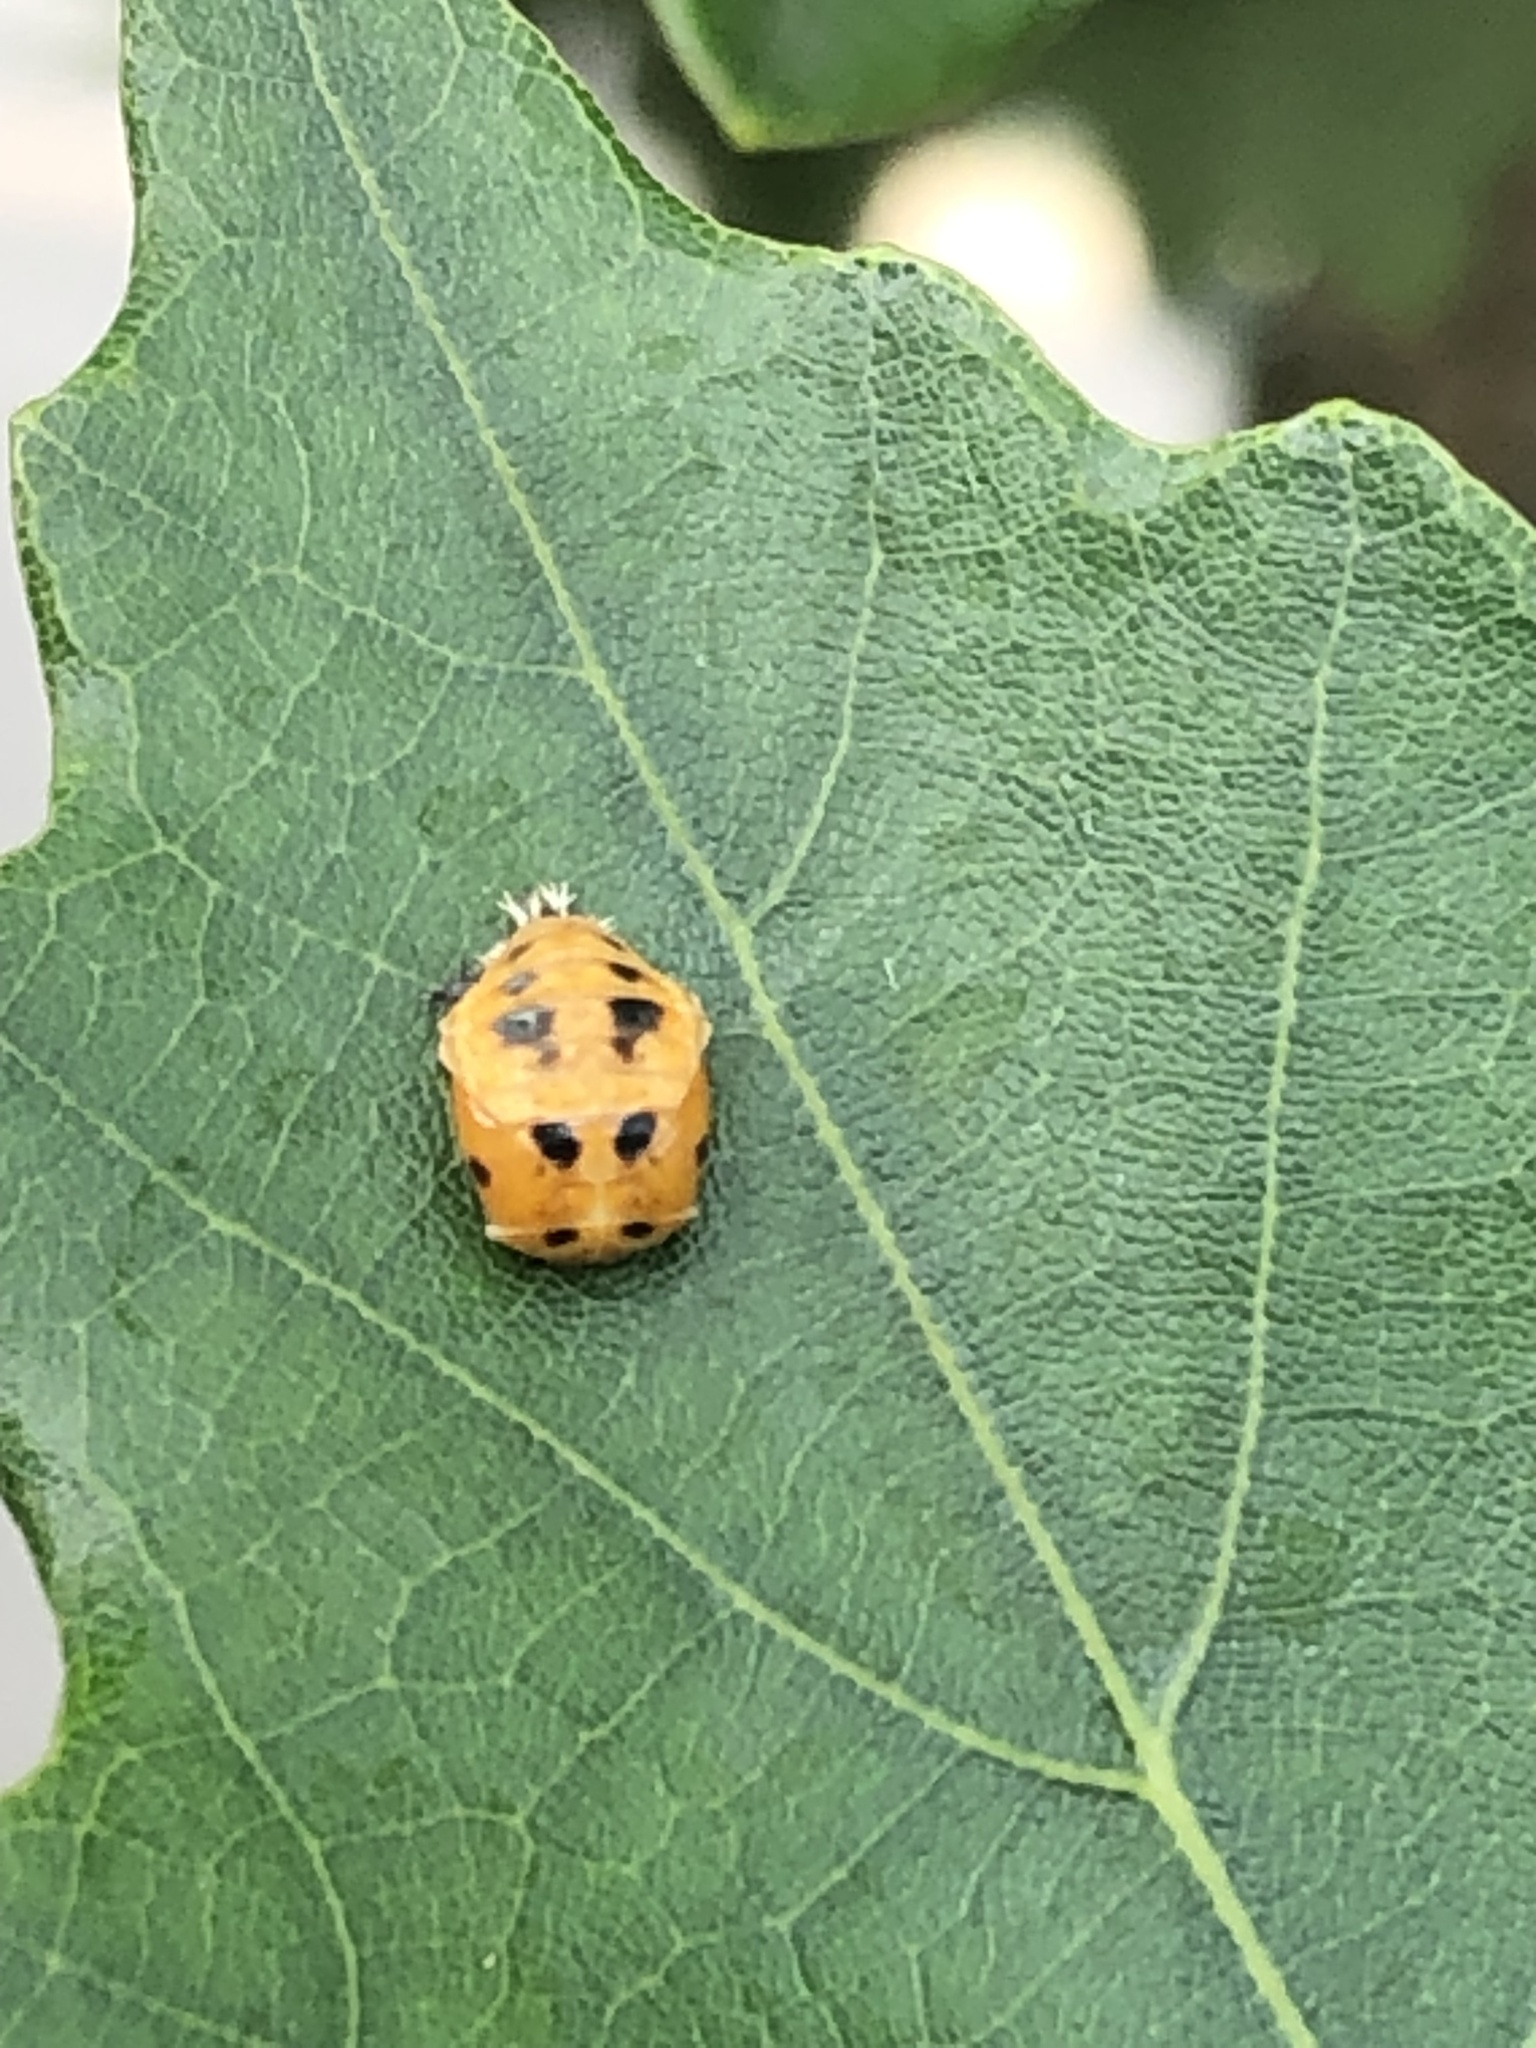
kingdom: Animalia
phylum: Arthropoda
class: Insecta
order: Coleoptera
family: Coccinellidae
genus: Harmonia
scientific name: Harmonia axyridis
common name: Harlequin ladybird
